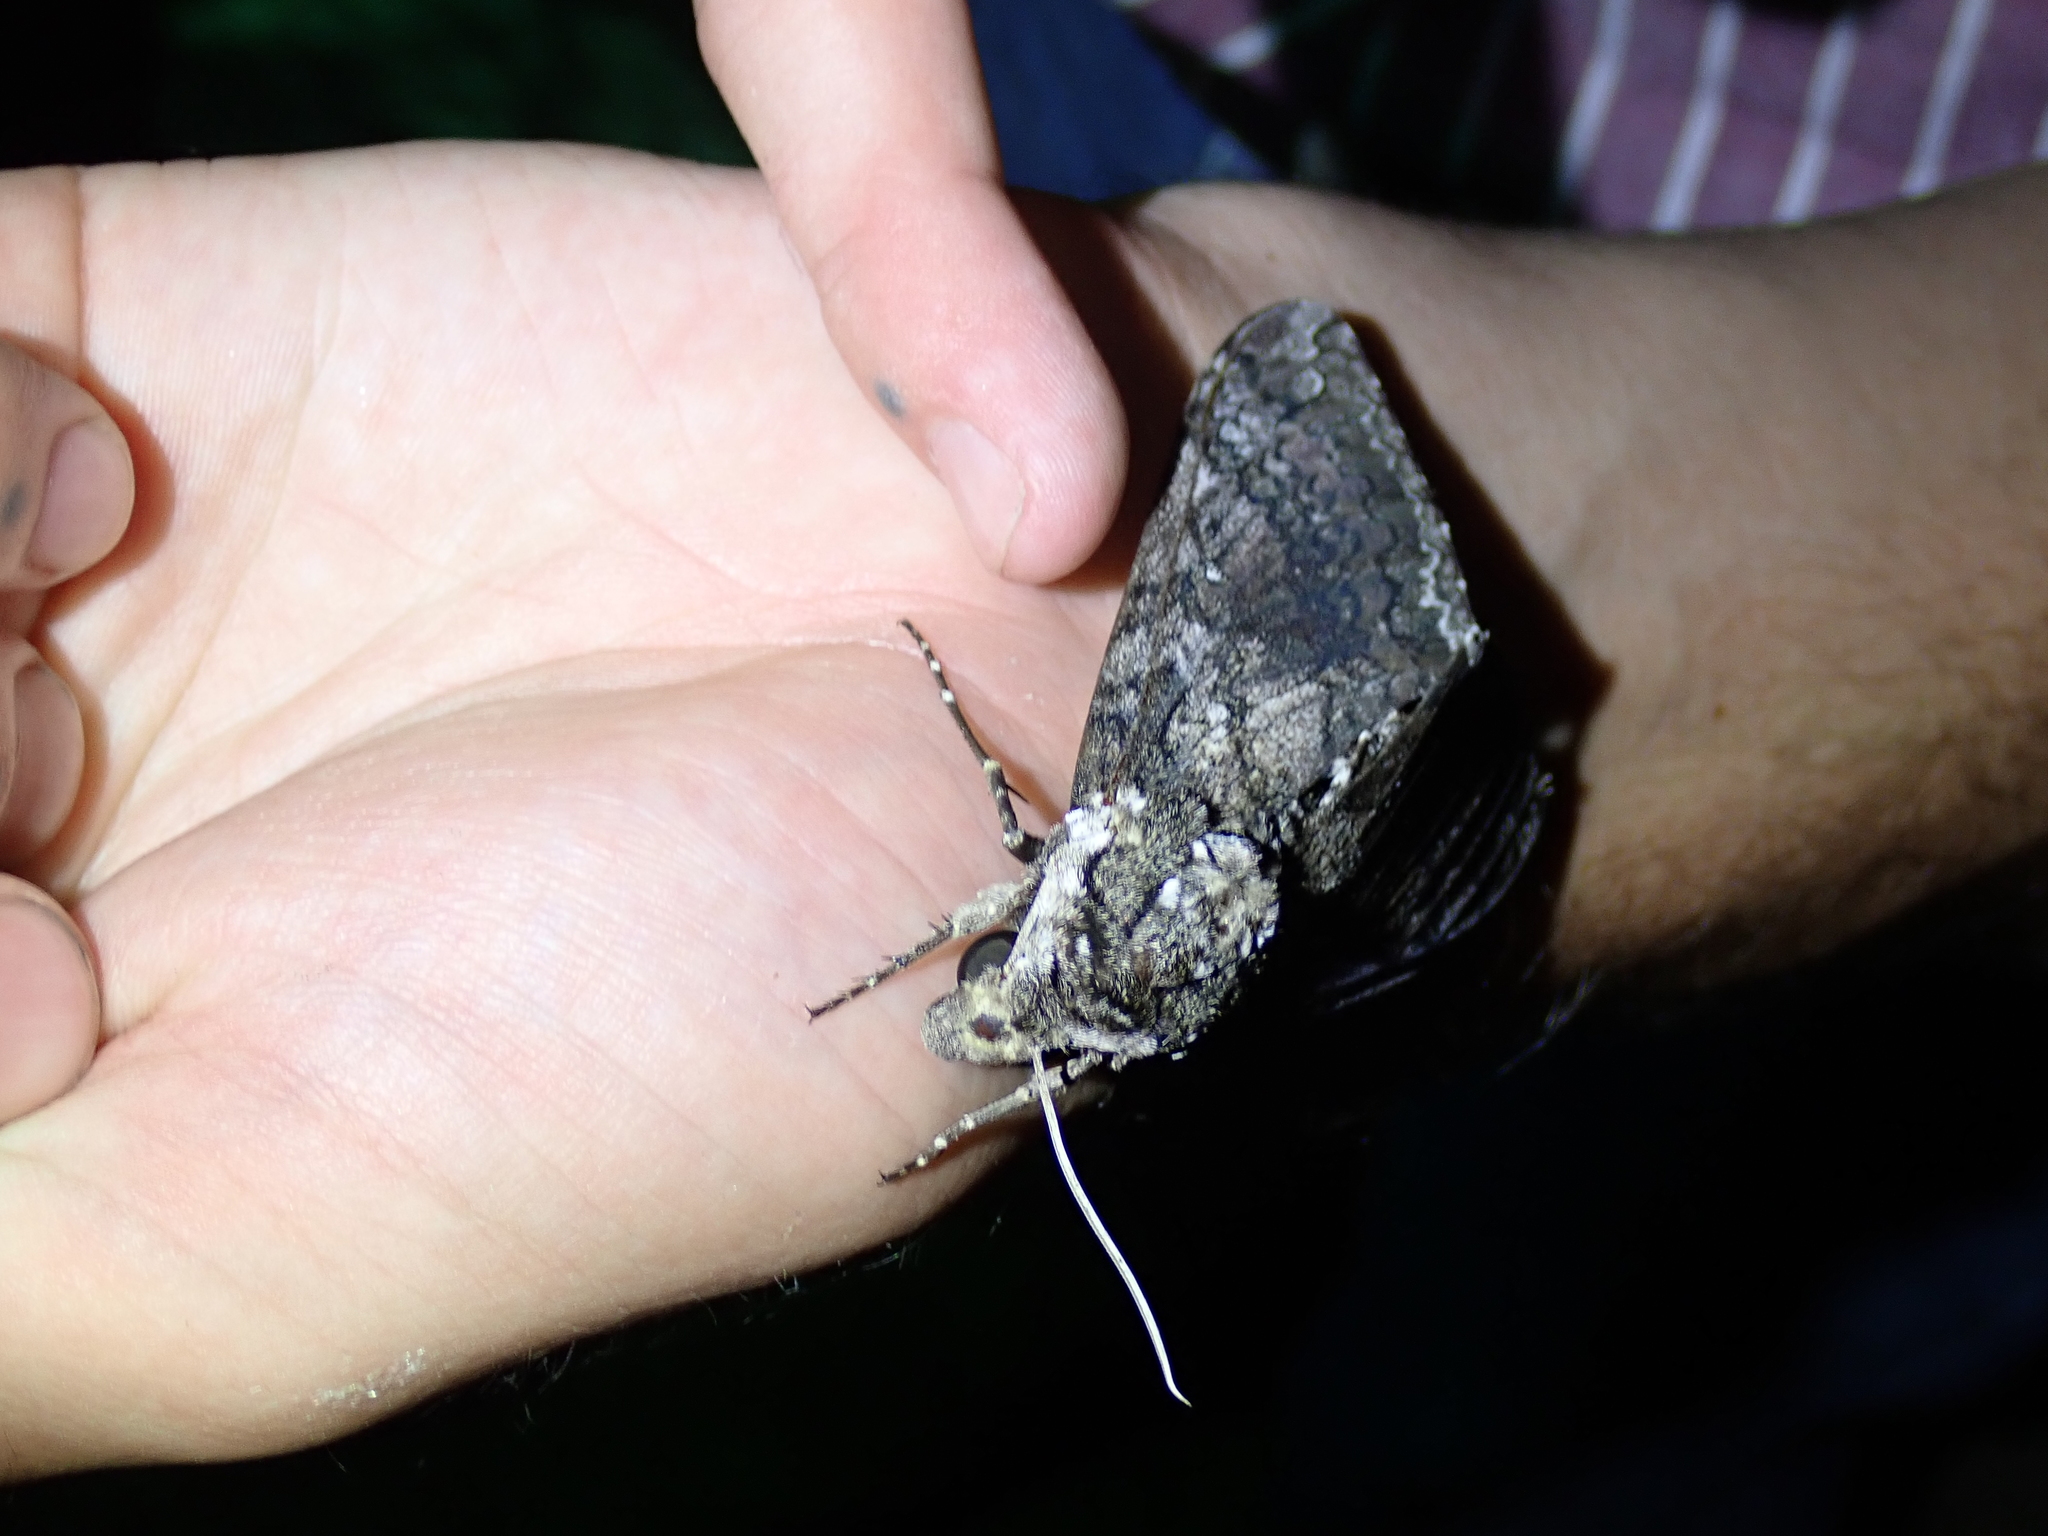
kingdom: Animalia
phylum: Arthropoda
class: Insecta
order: Lepidoptera
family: Sphingidae
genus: Manduca
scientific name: Manduca sexta
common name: Carolina sphinx
